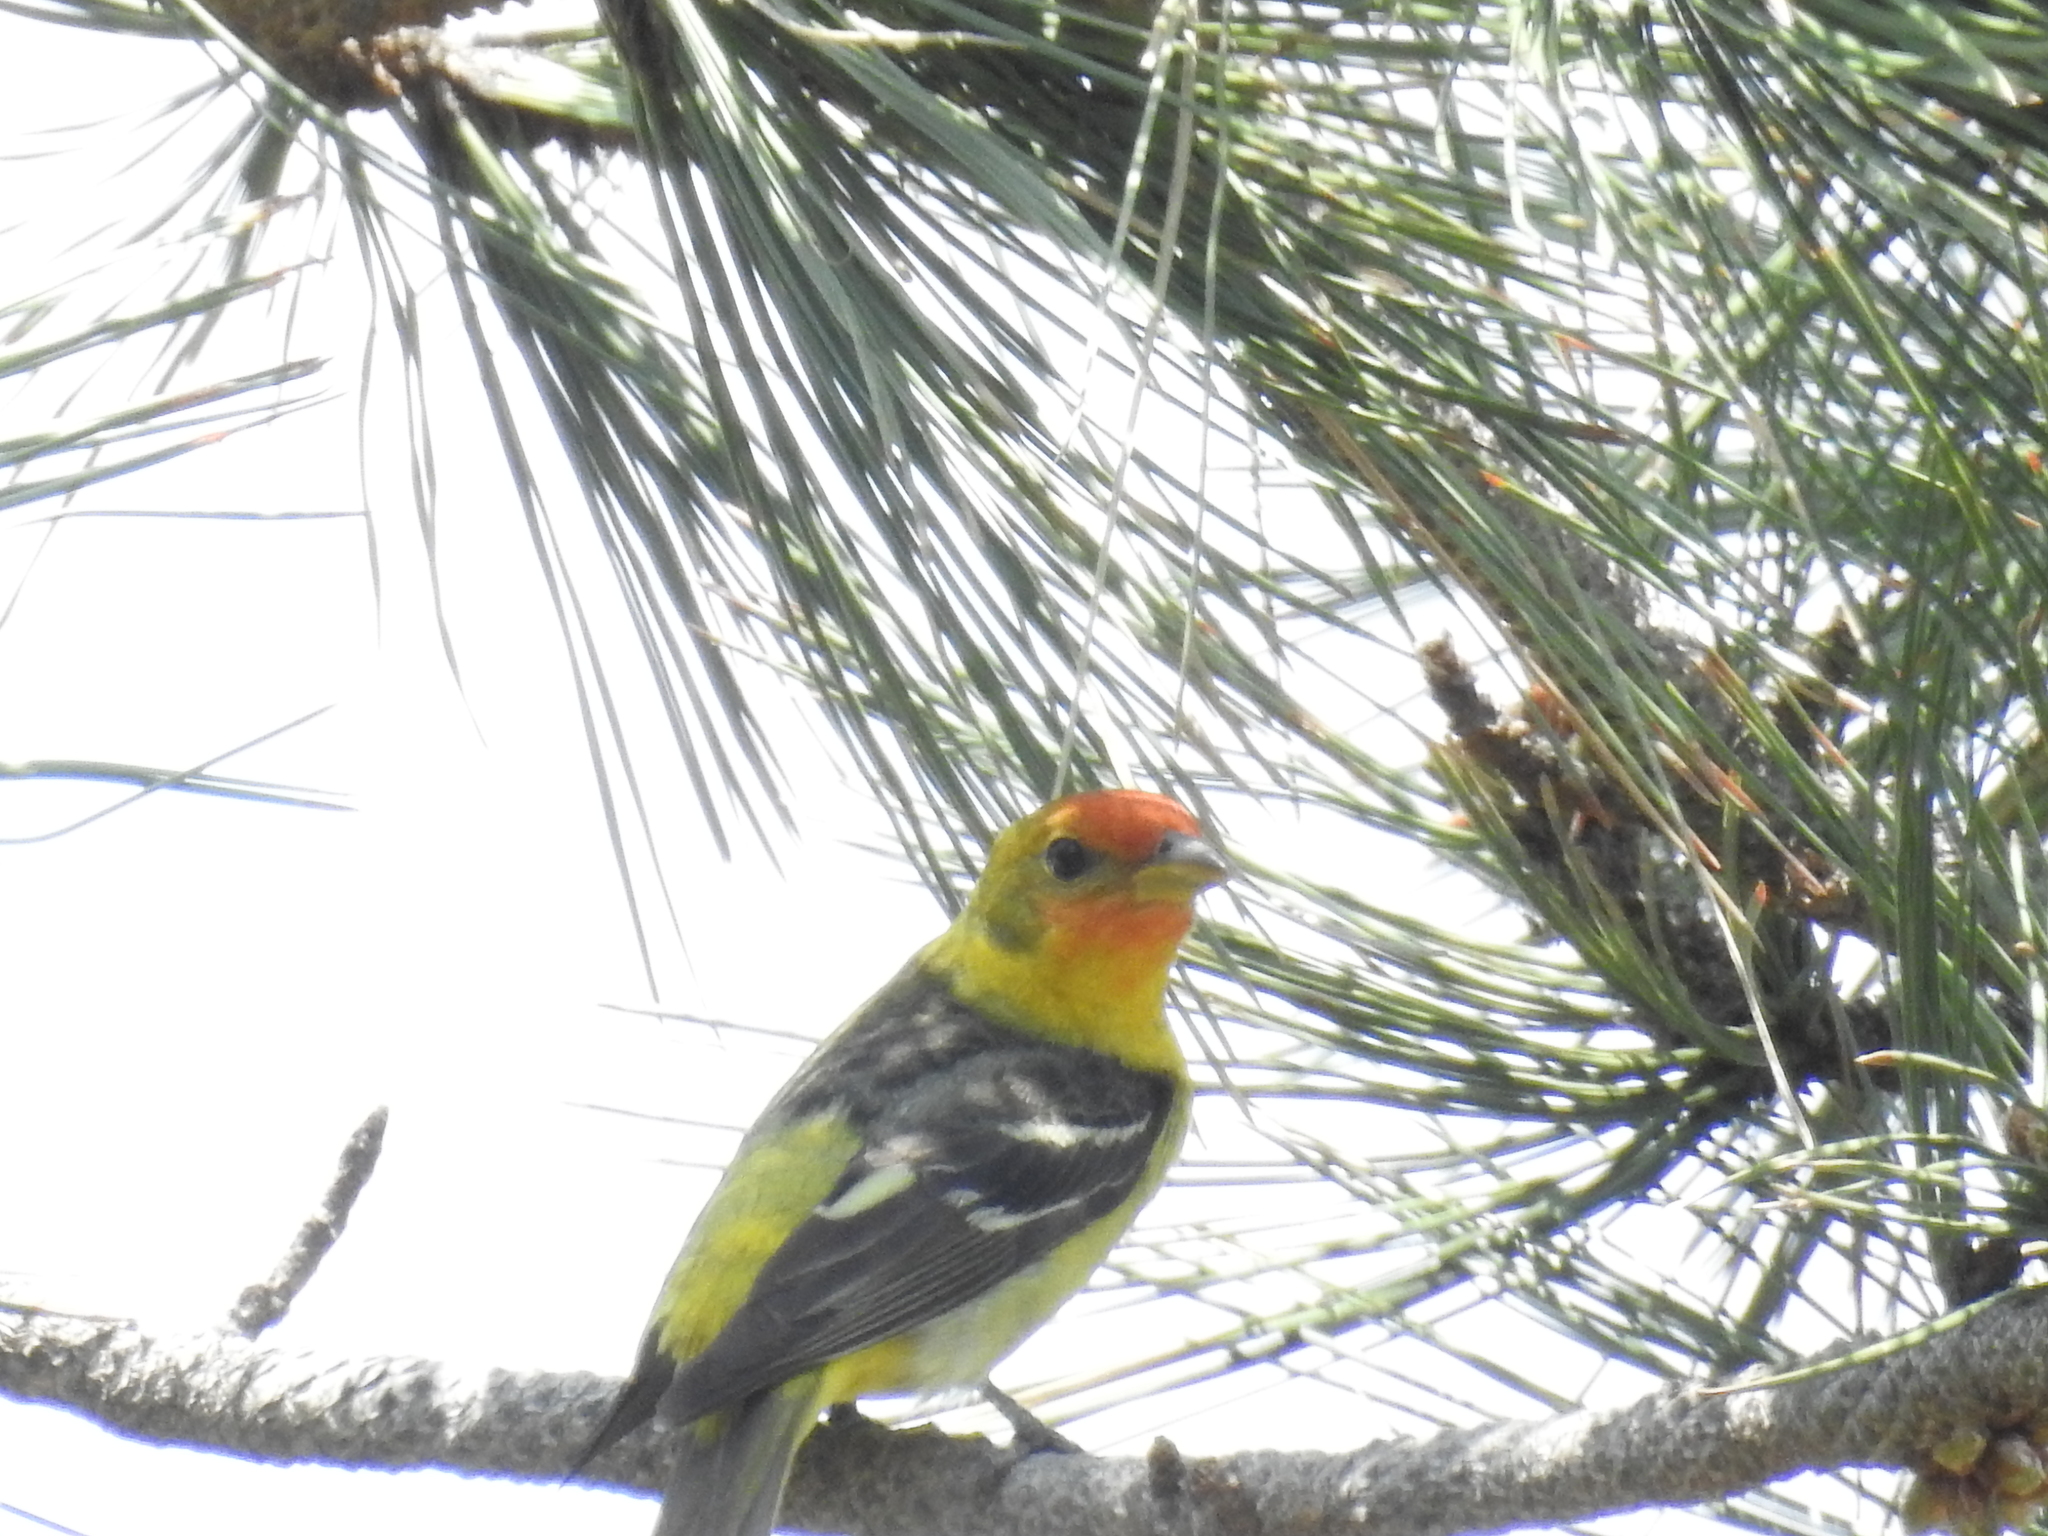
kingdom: Animalia
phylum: Chordata
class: Aves
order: Passeriformes
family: Cardinalidae
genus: Piranga
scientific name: Piranga ludoviciana
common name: Western tanager
